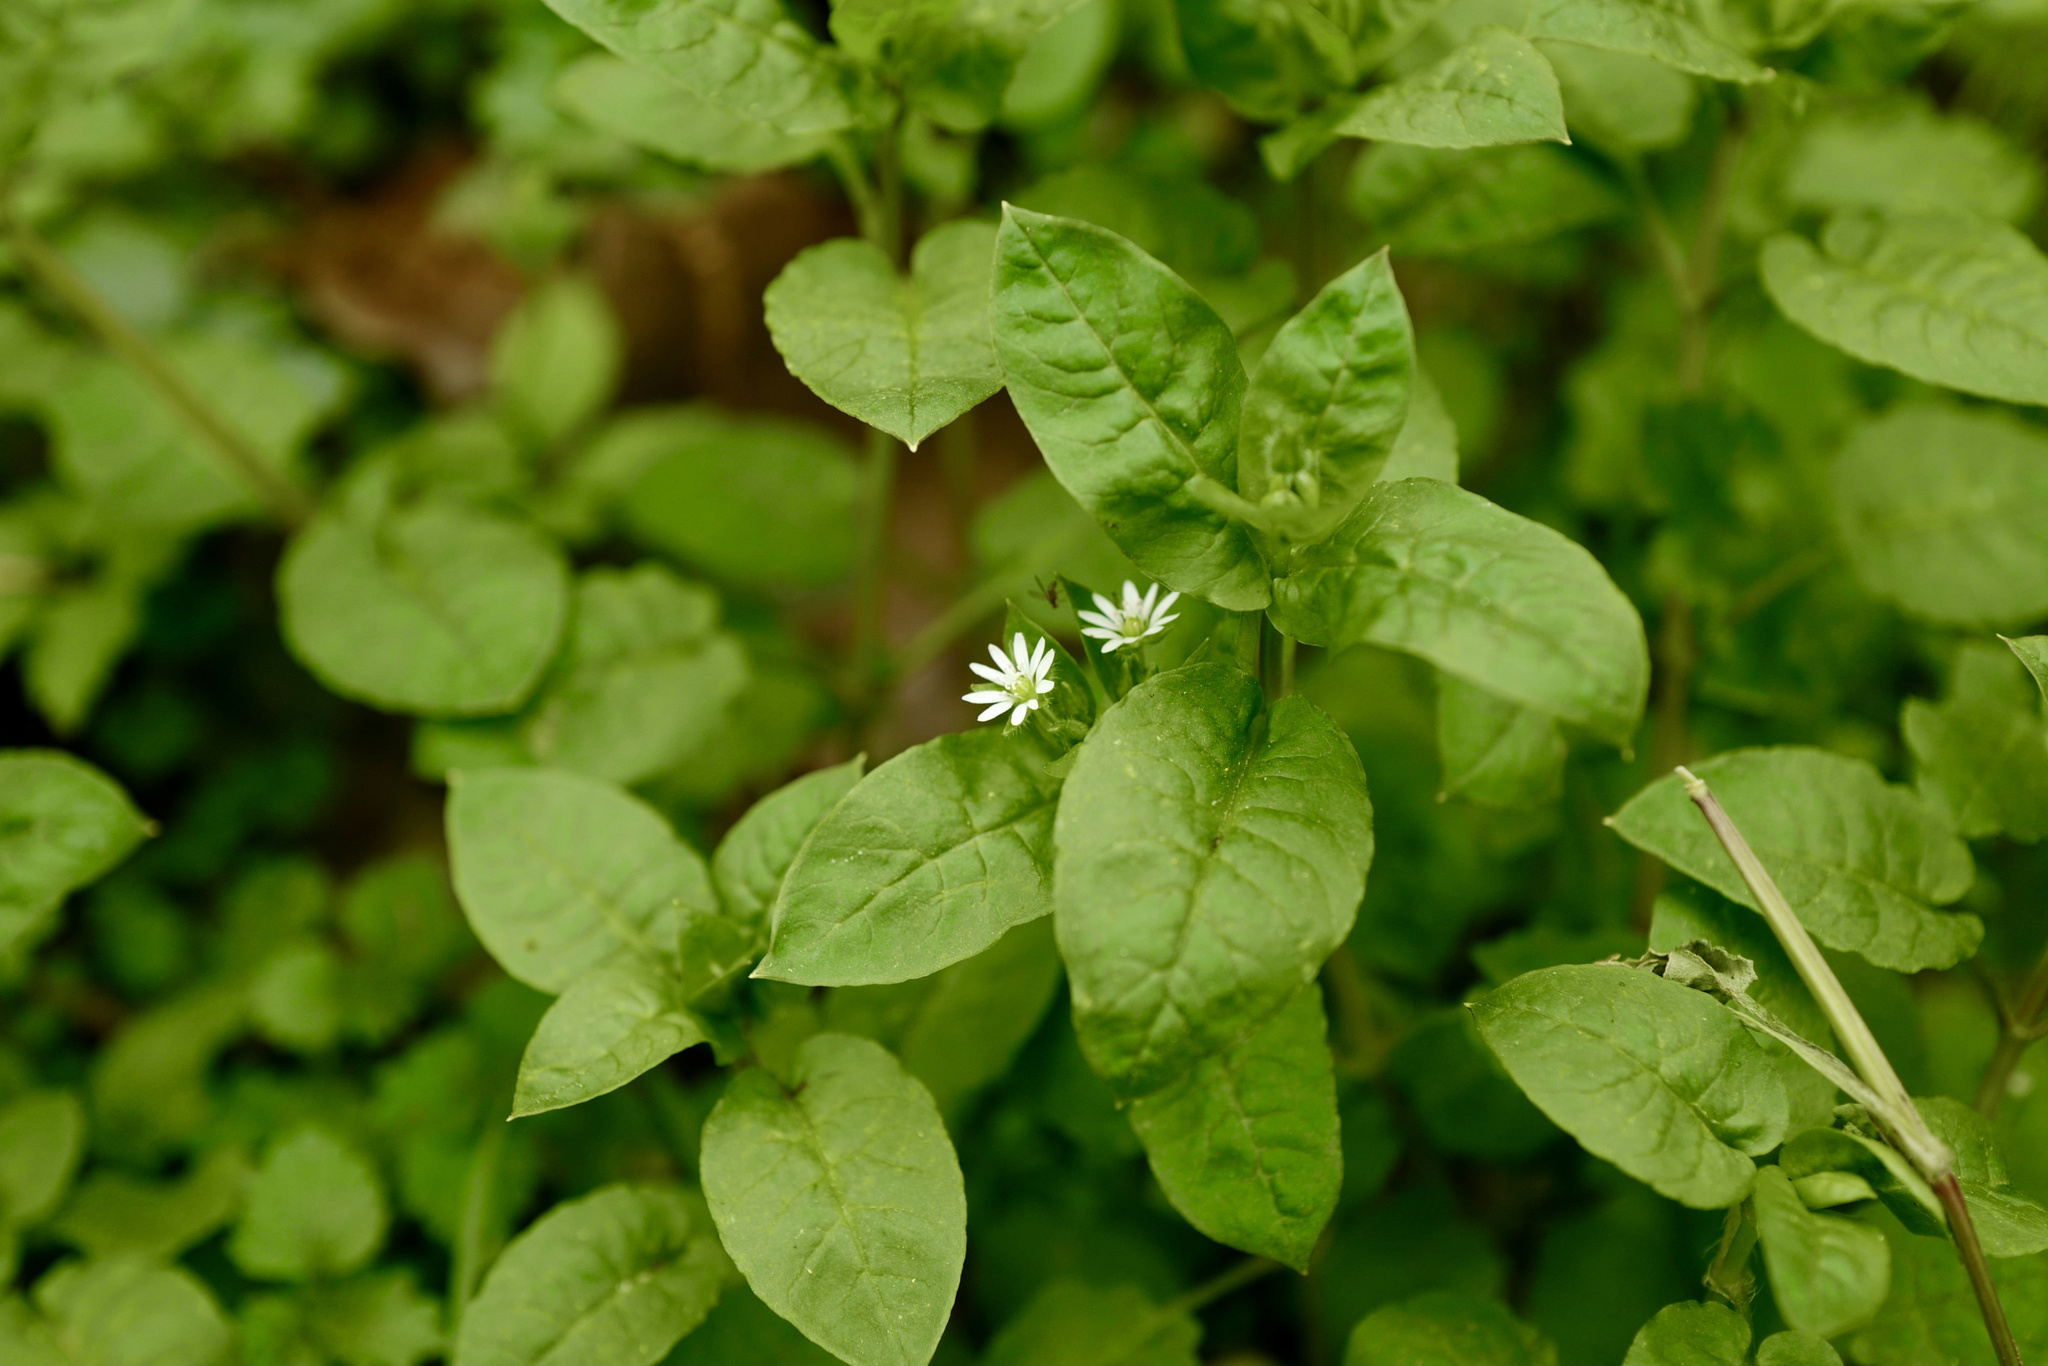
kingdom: Plantae
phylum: Tracheophyta
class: Magnoliopsida
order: Caryophyllales
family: Caryophyllaceae
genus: Stellaria
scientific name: Stellaria aquatica
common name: Water chickweed
